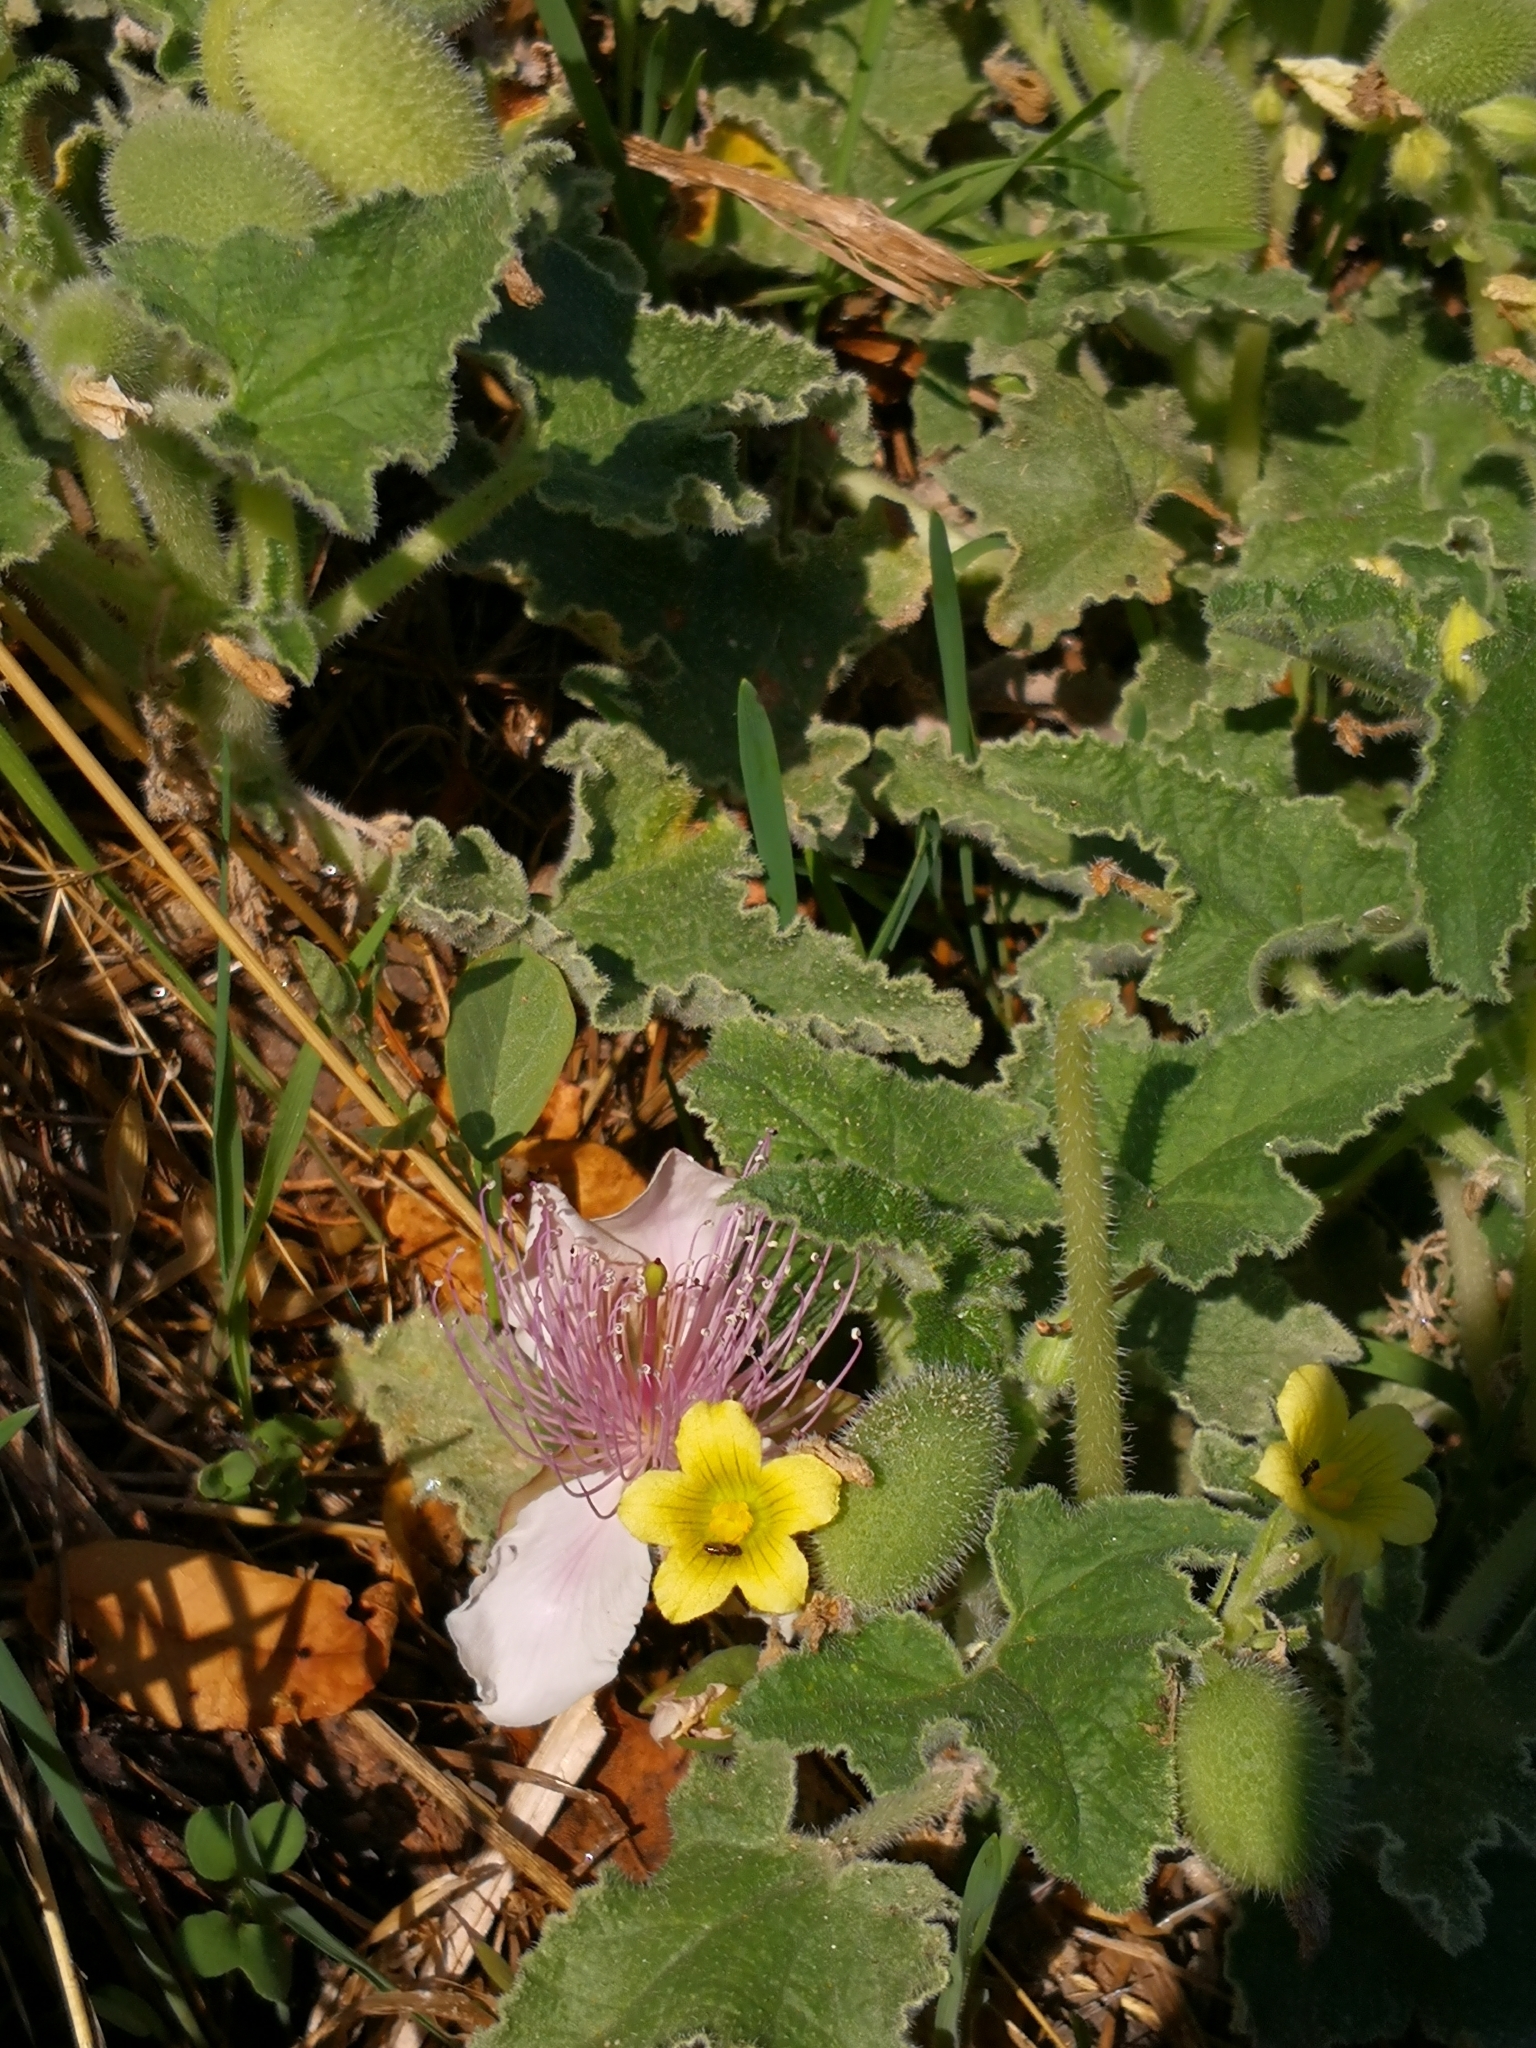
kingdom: Plantae
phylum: Tracheophyta
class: Magnoliopsida
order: Cucurbitales
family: Cucurbitaceae
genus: Ecballium
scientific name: Ecballium elaterium
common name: Squirting cucumber
